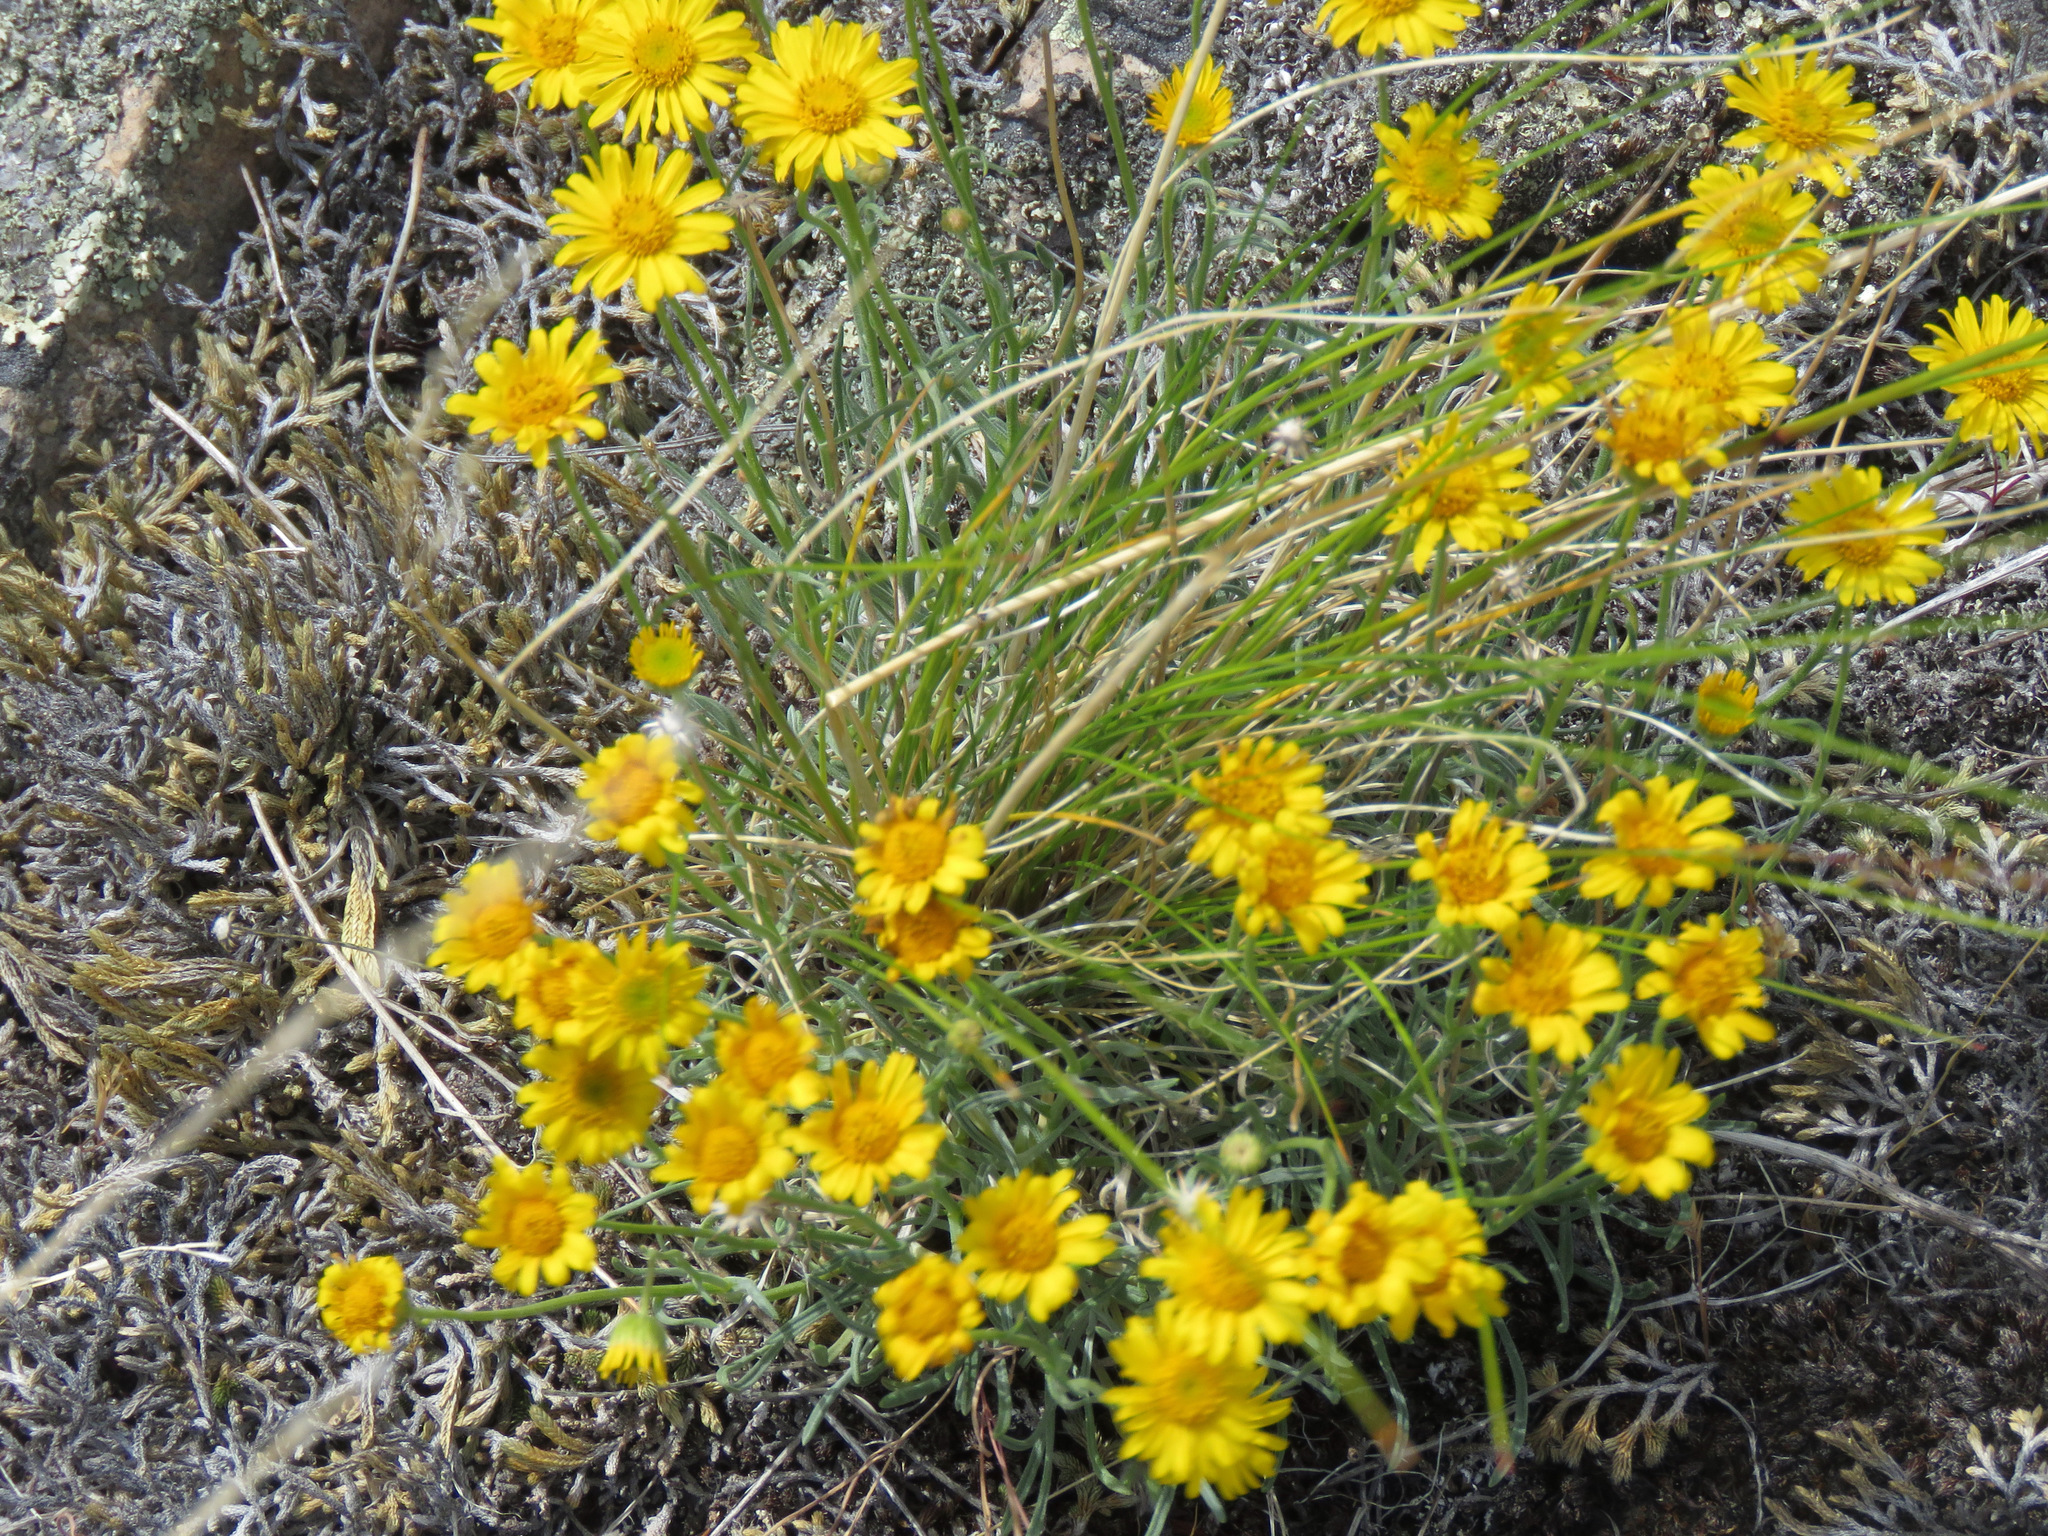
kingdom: Plantae
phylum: Tracheophyta
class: Magnoliopsida
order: Asterales
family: Asteraceae
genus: Erigeron
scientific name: Erigeron linearis
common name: Desert yellow fleabane
